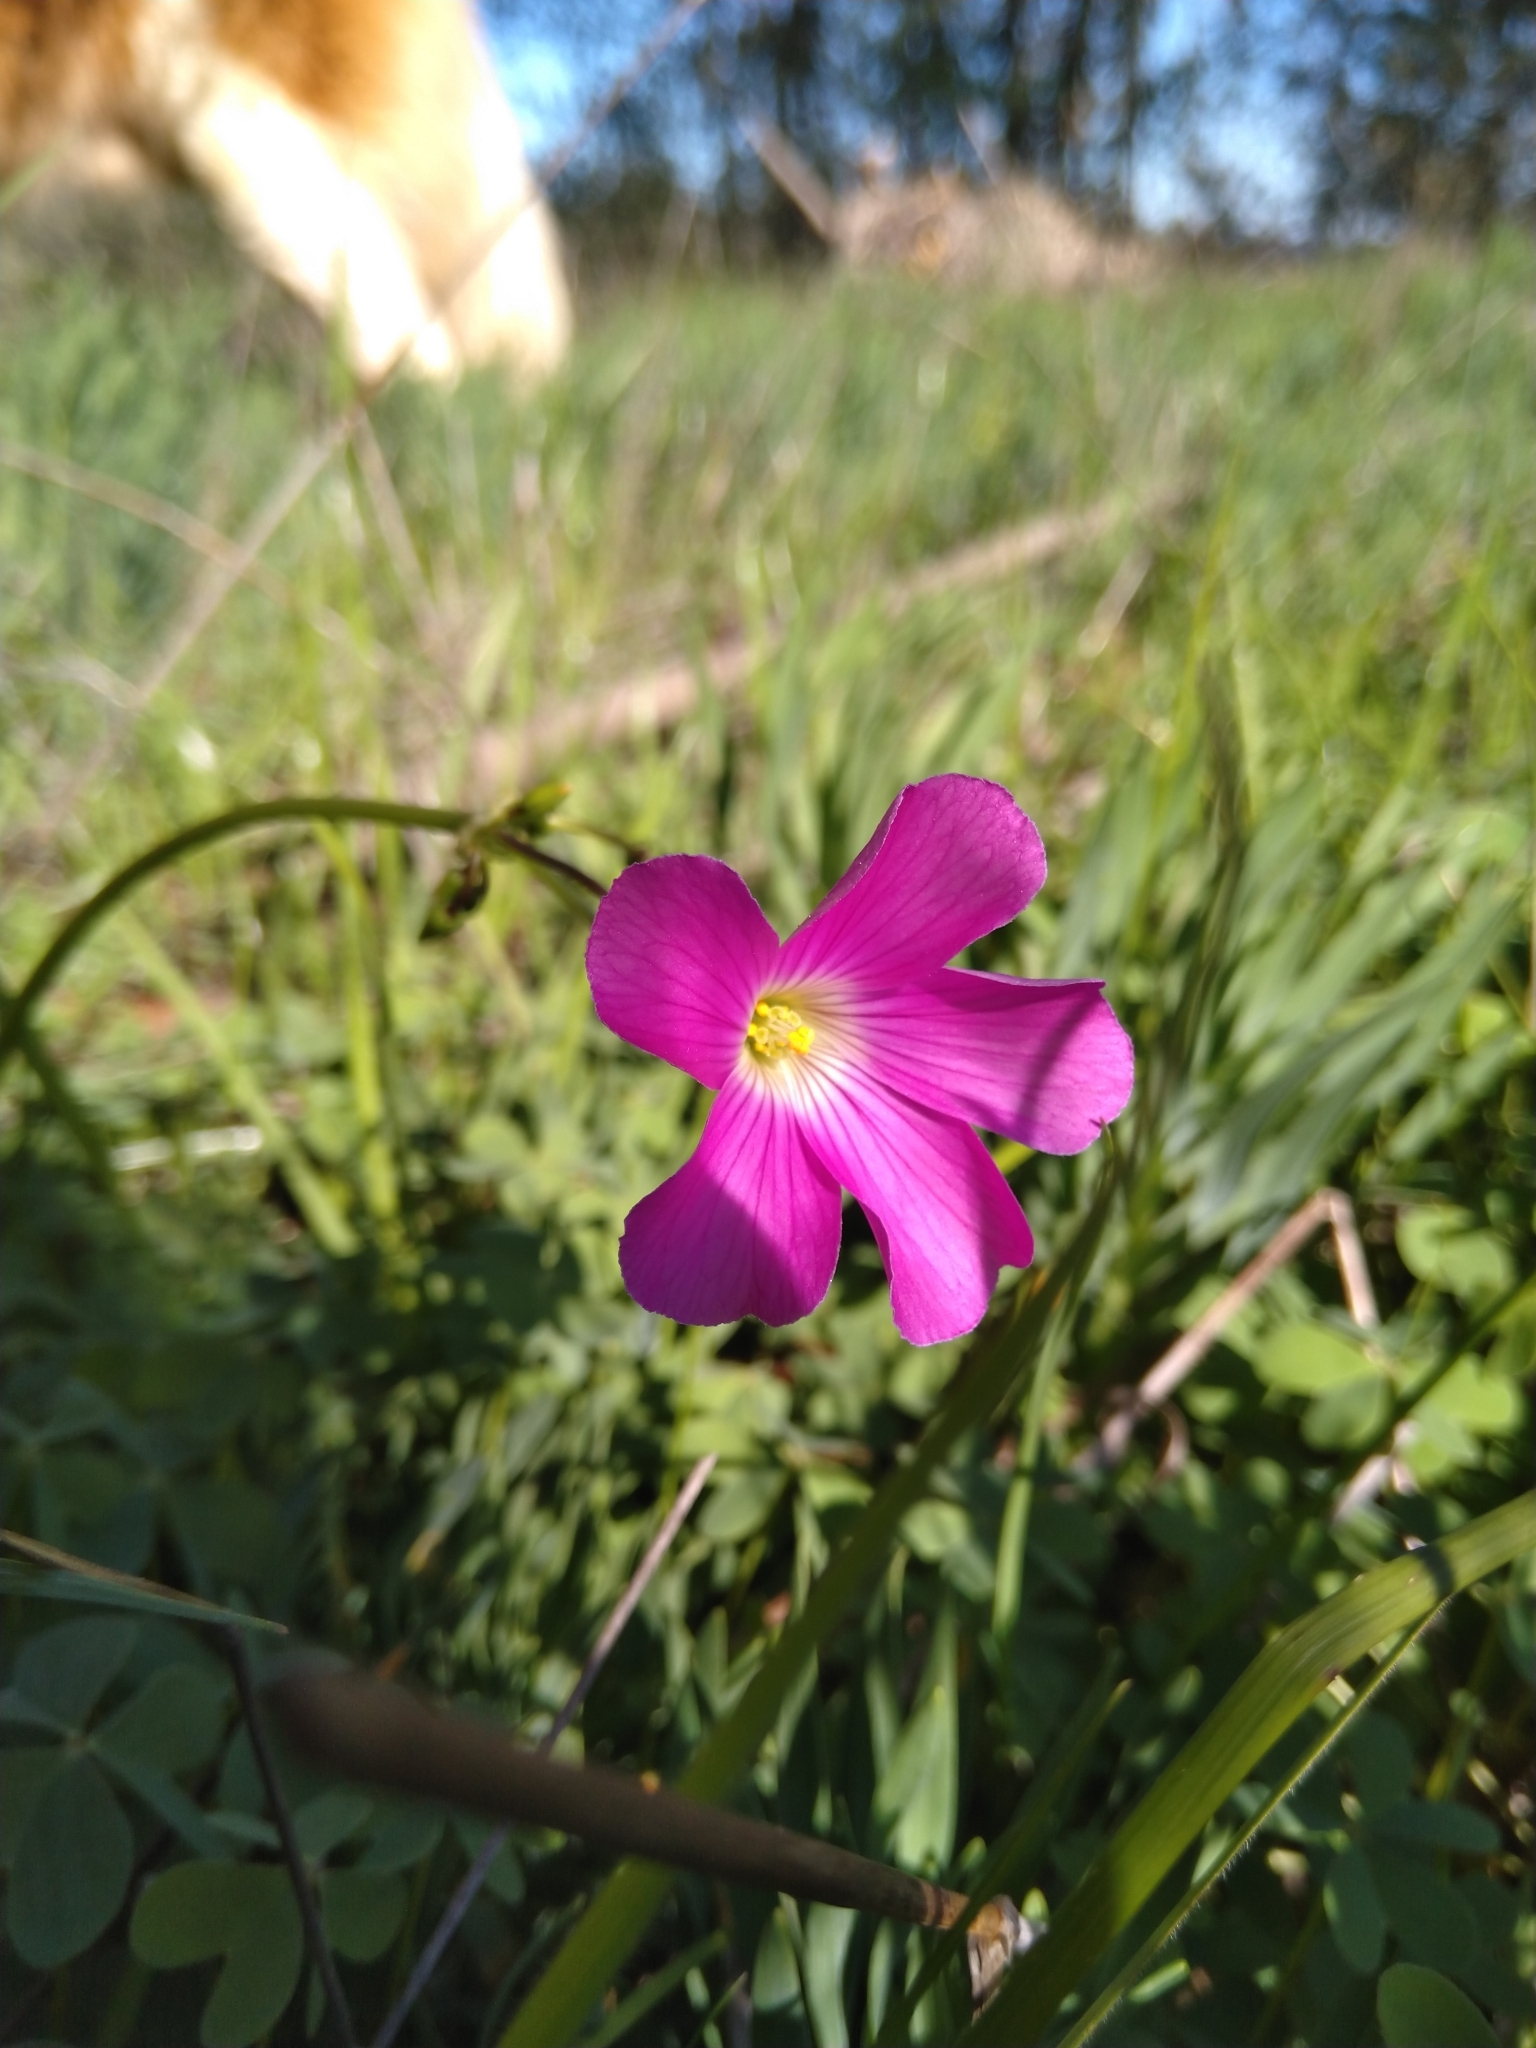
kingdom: Plantae
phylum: Tracheophyta
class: Magnoliopsida
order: Oxalidales
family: Oxalidaceae
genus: Oxalis
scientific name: Oxalis arenaria
